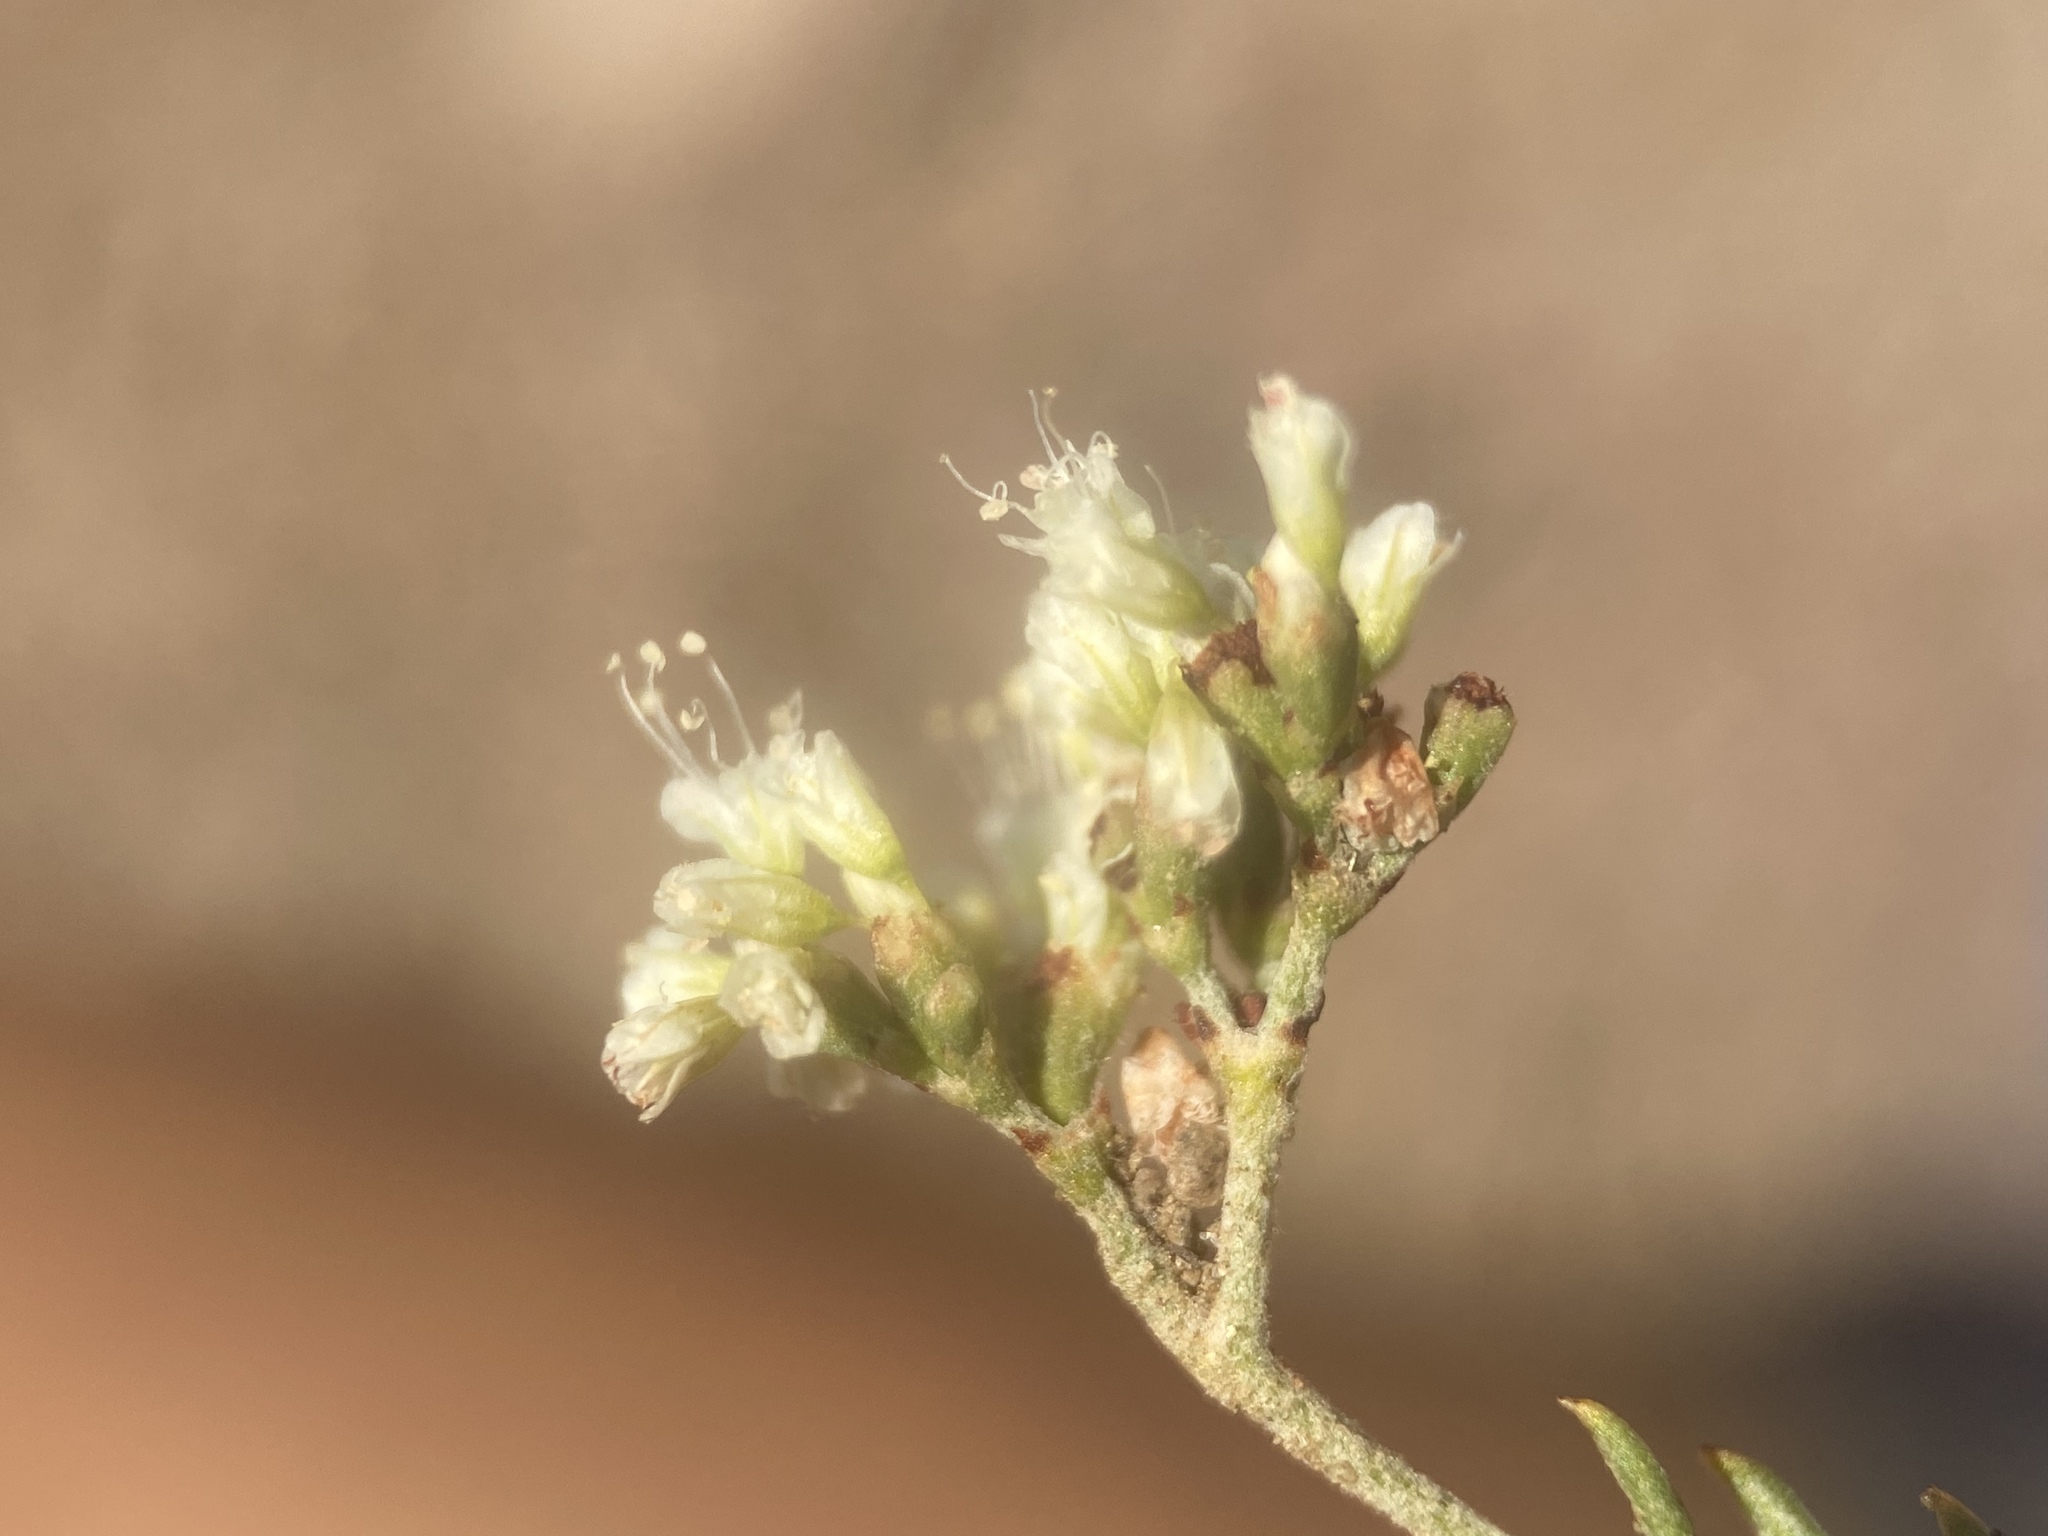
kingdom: Plantae
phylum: Tracheophyta
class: Magnoliopsida
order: Caryophyllales
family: Polygonaceae
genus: Eriogonum
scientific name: Eriogonum microtheca
